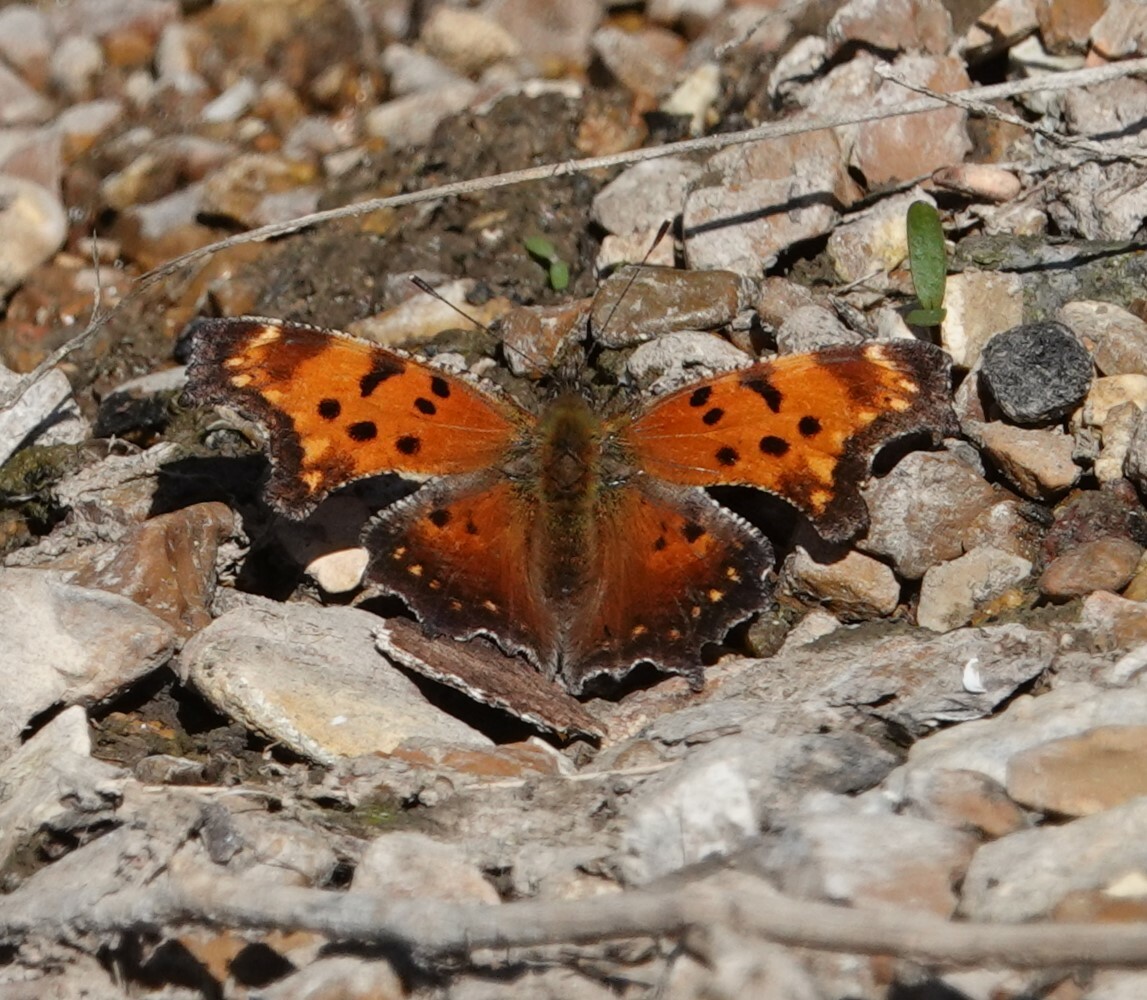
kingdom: Animalia
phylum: Arthropoda
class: Insecta
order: Lepidoptera
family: Nymphalidae
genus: Polygonia
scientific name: Polygonia progne
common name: Gray comma
